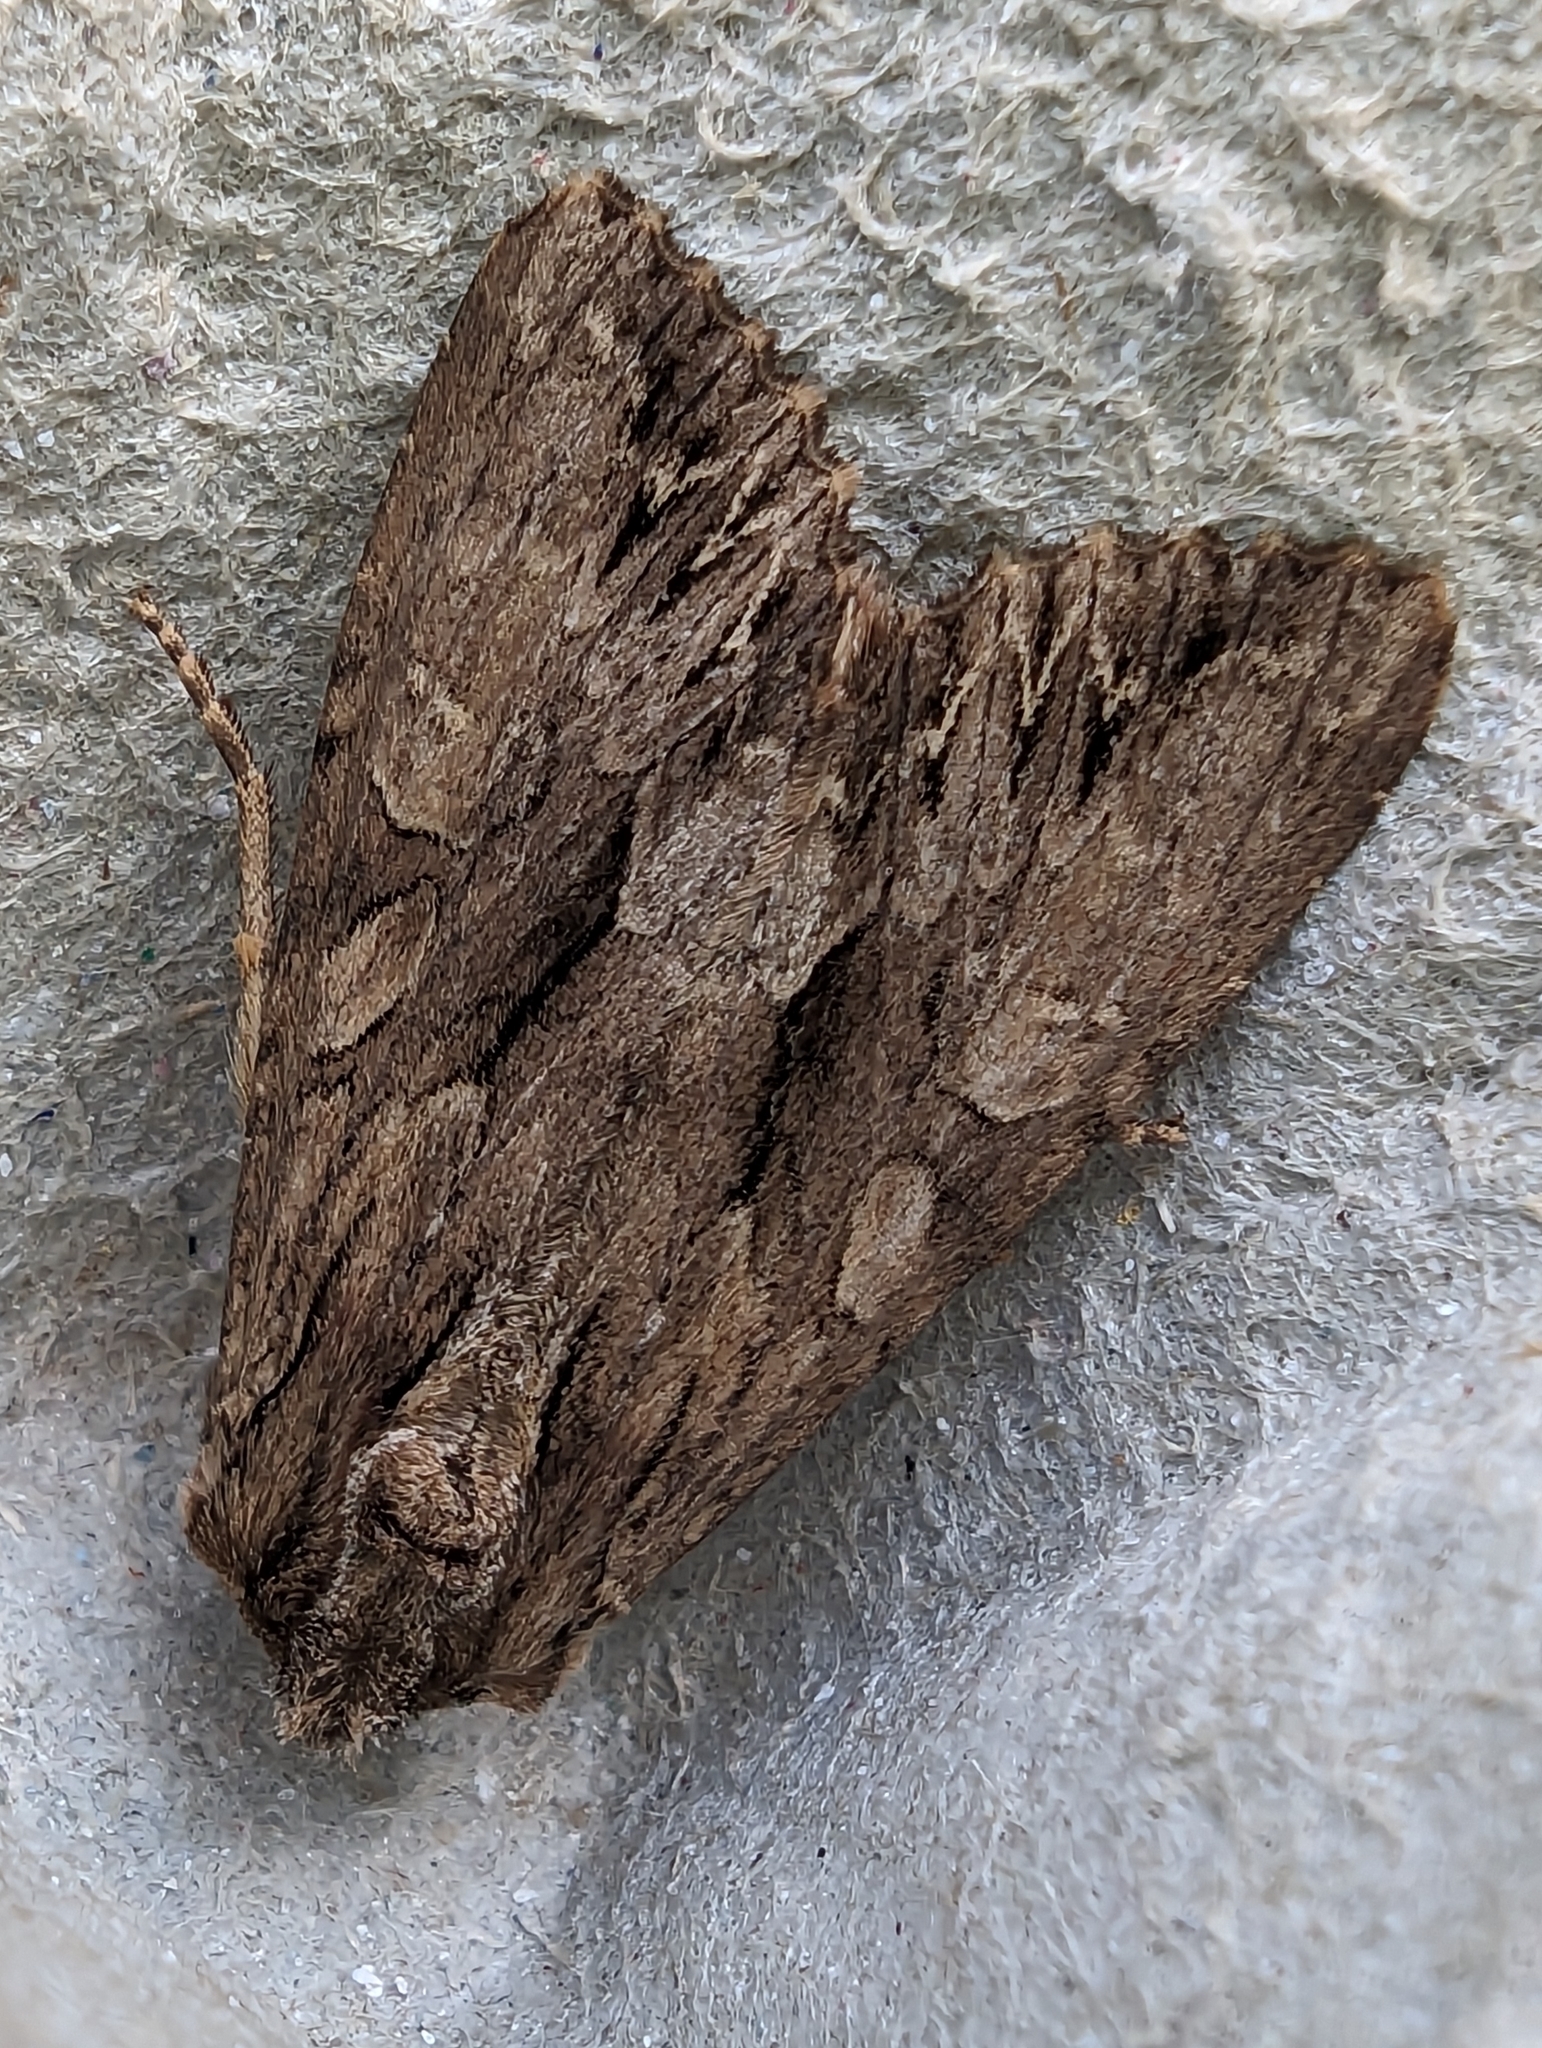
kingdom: Animalia
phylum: Arthropoda
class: Insecta
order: Lepidoptera
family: Noctuidae
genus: Apamea
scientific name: Apamea monoglypha
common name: Dark arches
